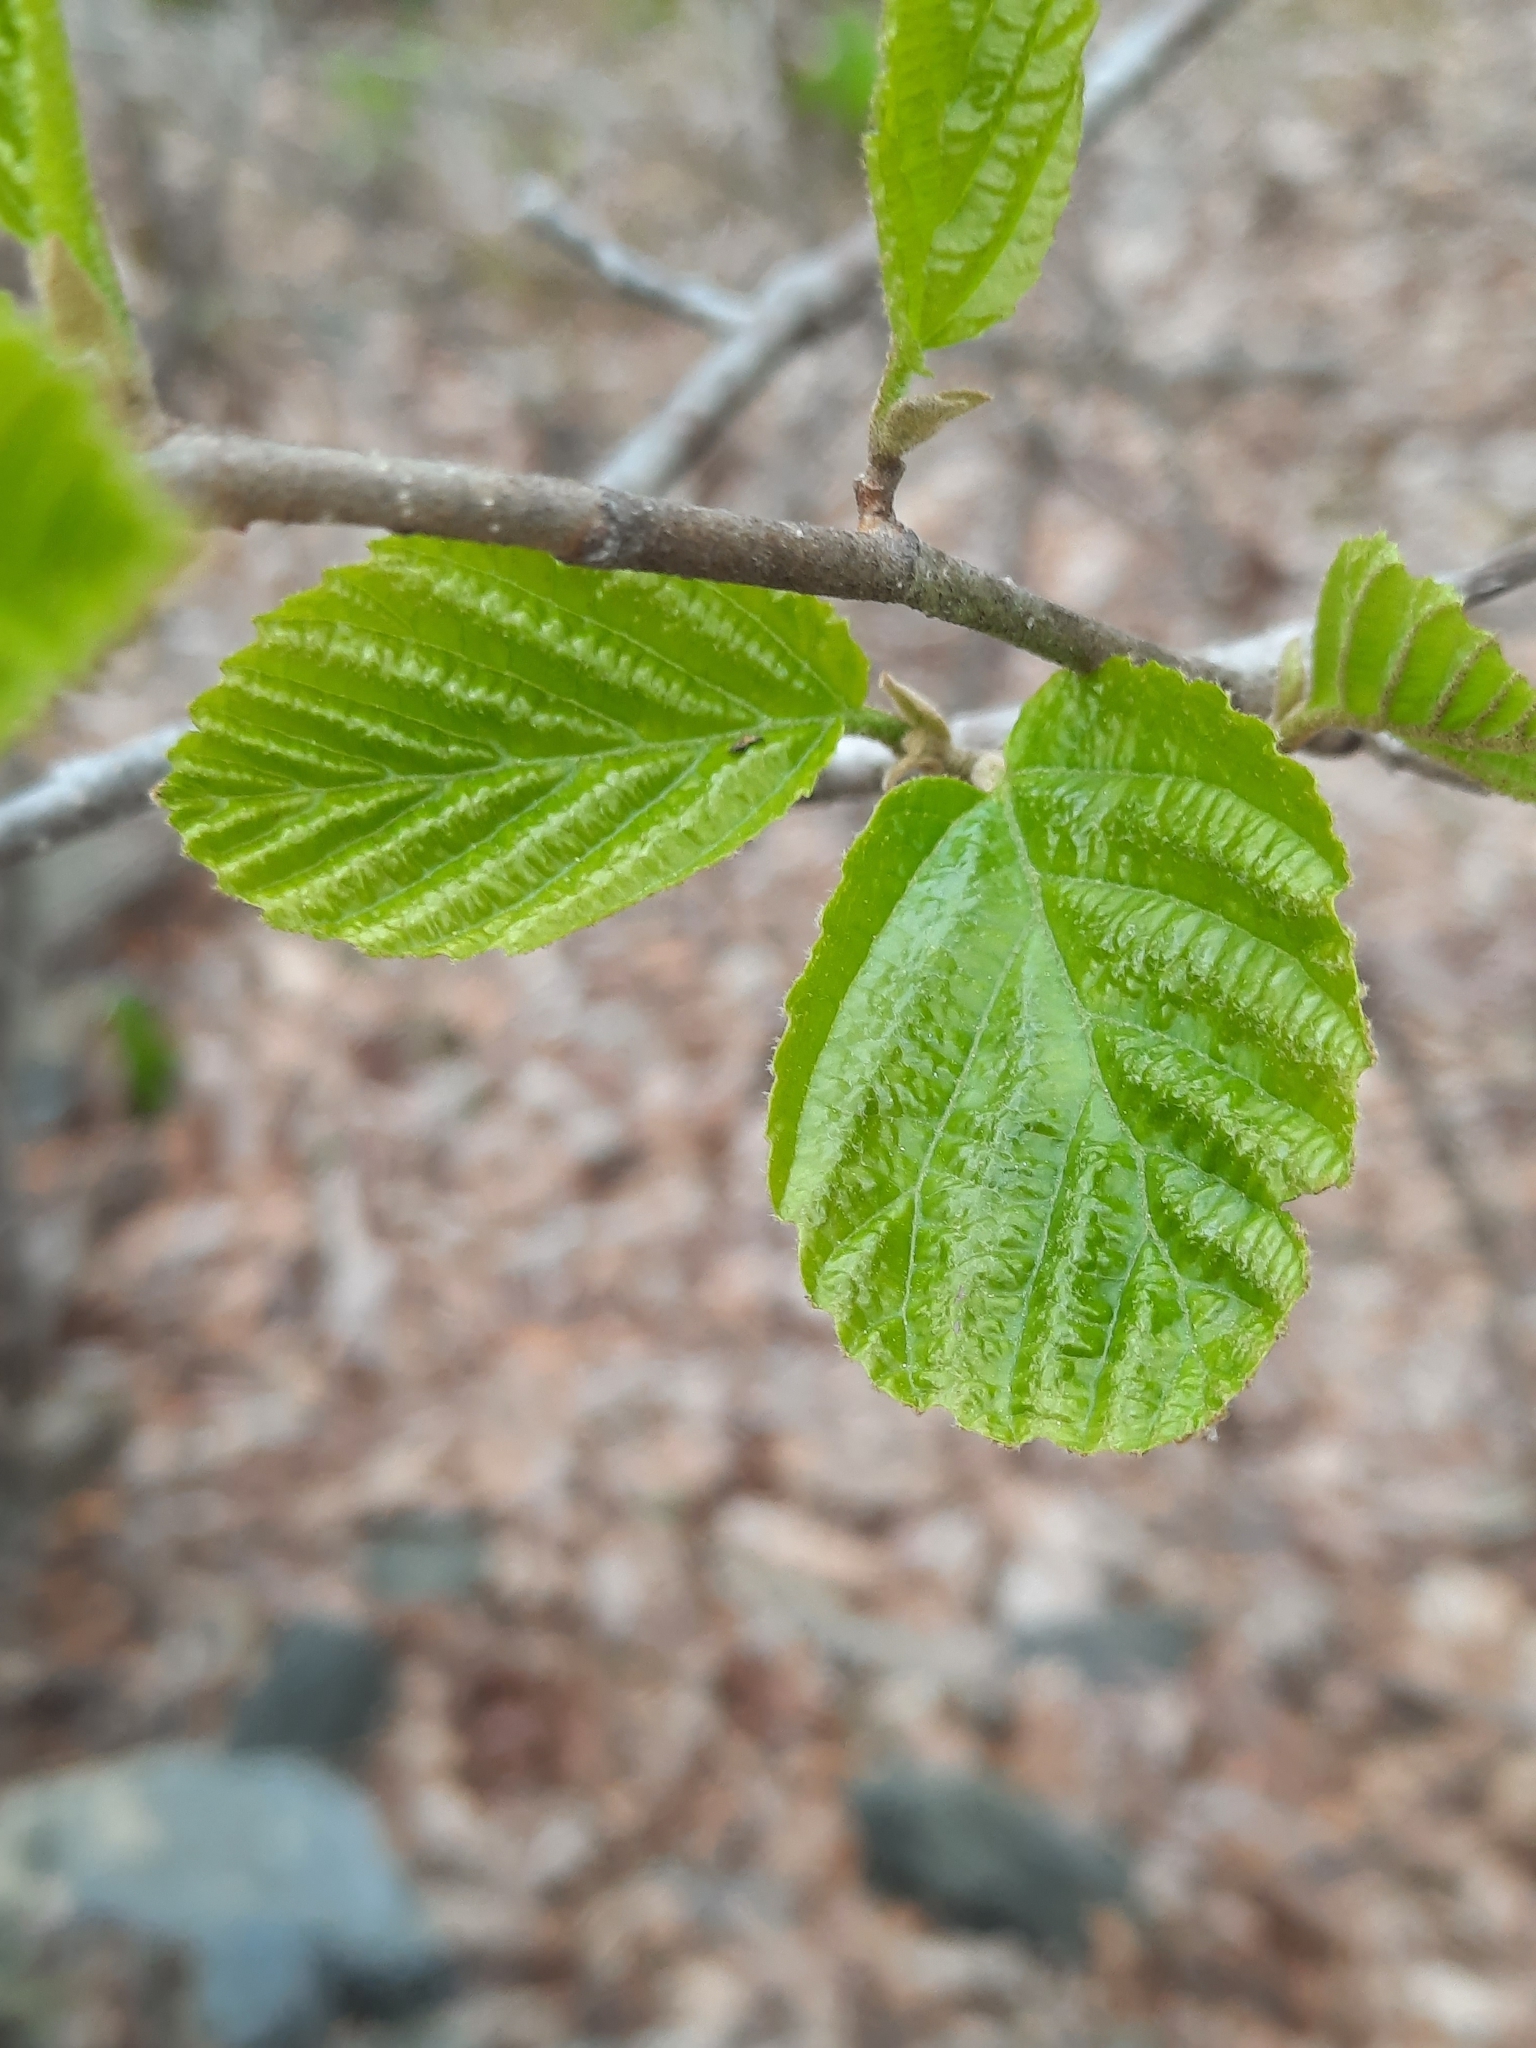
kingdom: Plantae
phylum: Tracheophyta
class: Magnoliopsida
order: Saxifragales
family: Hamamelidaceae
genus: Hamamelis
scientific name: Hamamelis virginiana
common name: Witch-hazel
